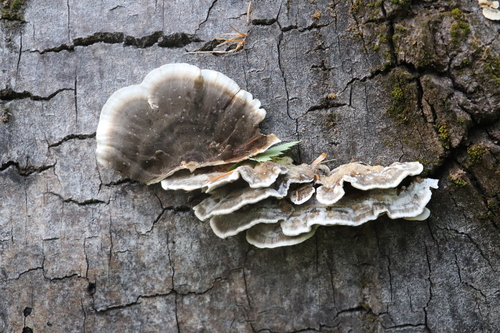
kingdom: Fungi
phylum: Basidiomycota
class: Agaricomycetes
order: Polyporales
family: Phanerochaetaceae
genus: Bjerkandera
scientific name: Bjerkandera adusta
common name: Smoky bracket
